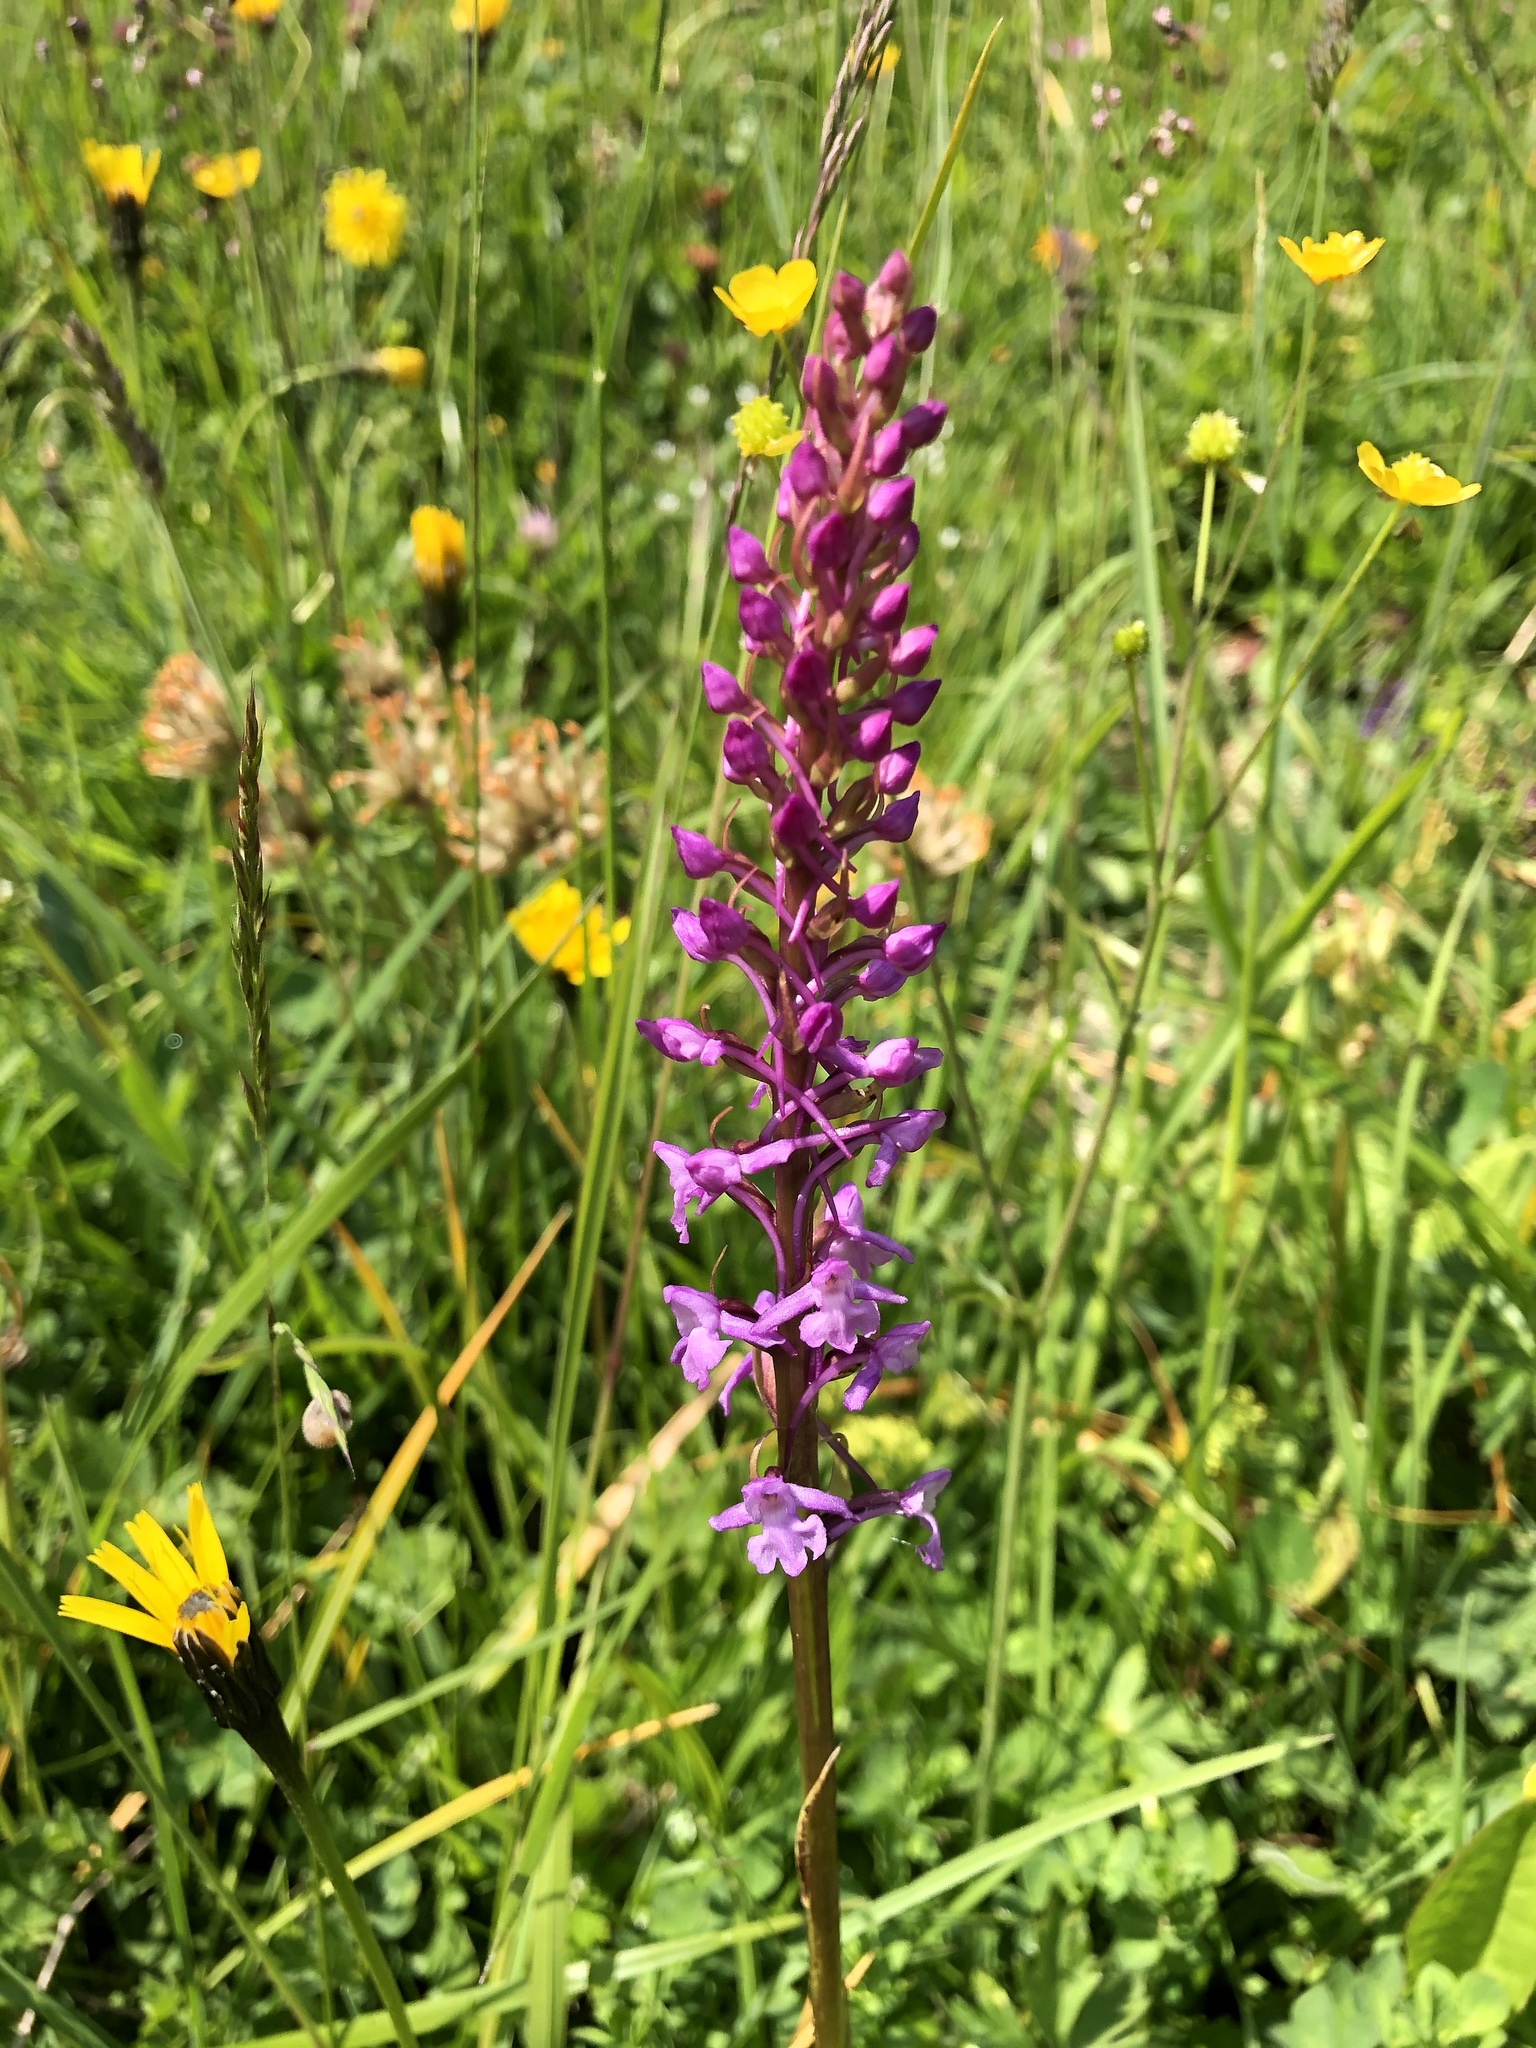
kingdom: Plantae
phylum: Tracheophyta
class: Liliopsida
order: Asparagales
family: Orchidaceae
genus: Gymnadenia
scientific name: Gymnadenia conopsea
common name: Fragrant orchid
